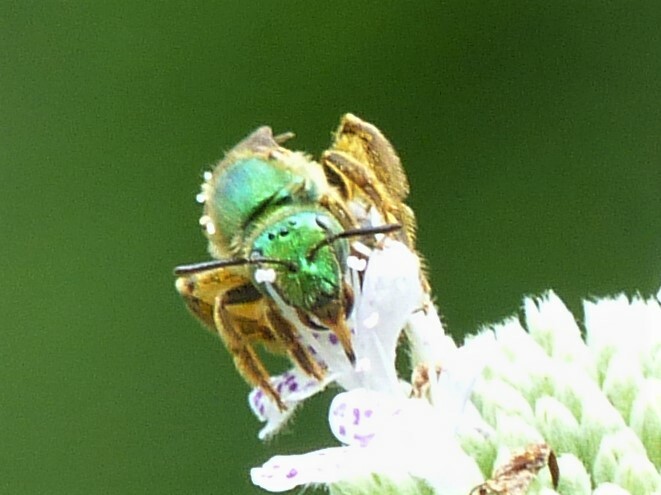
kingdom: Animalia
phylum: Arthropoda
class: Insecta
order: Hymenoptera
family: Halictidae
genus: Agapostemon
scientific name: Agapostemon virescens
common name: Bicolored striped sweat bee
